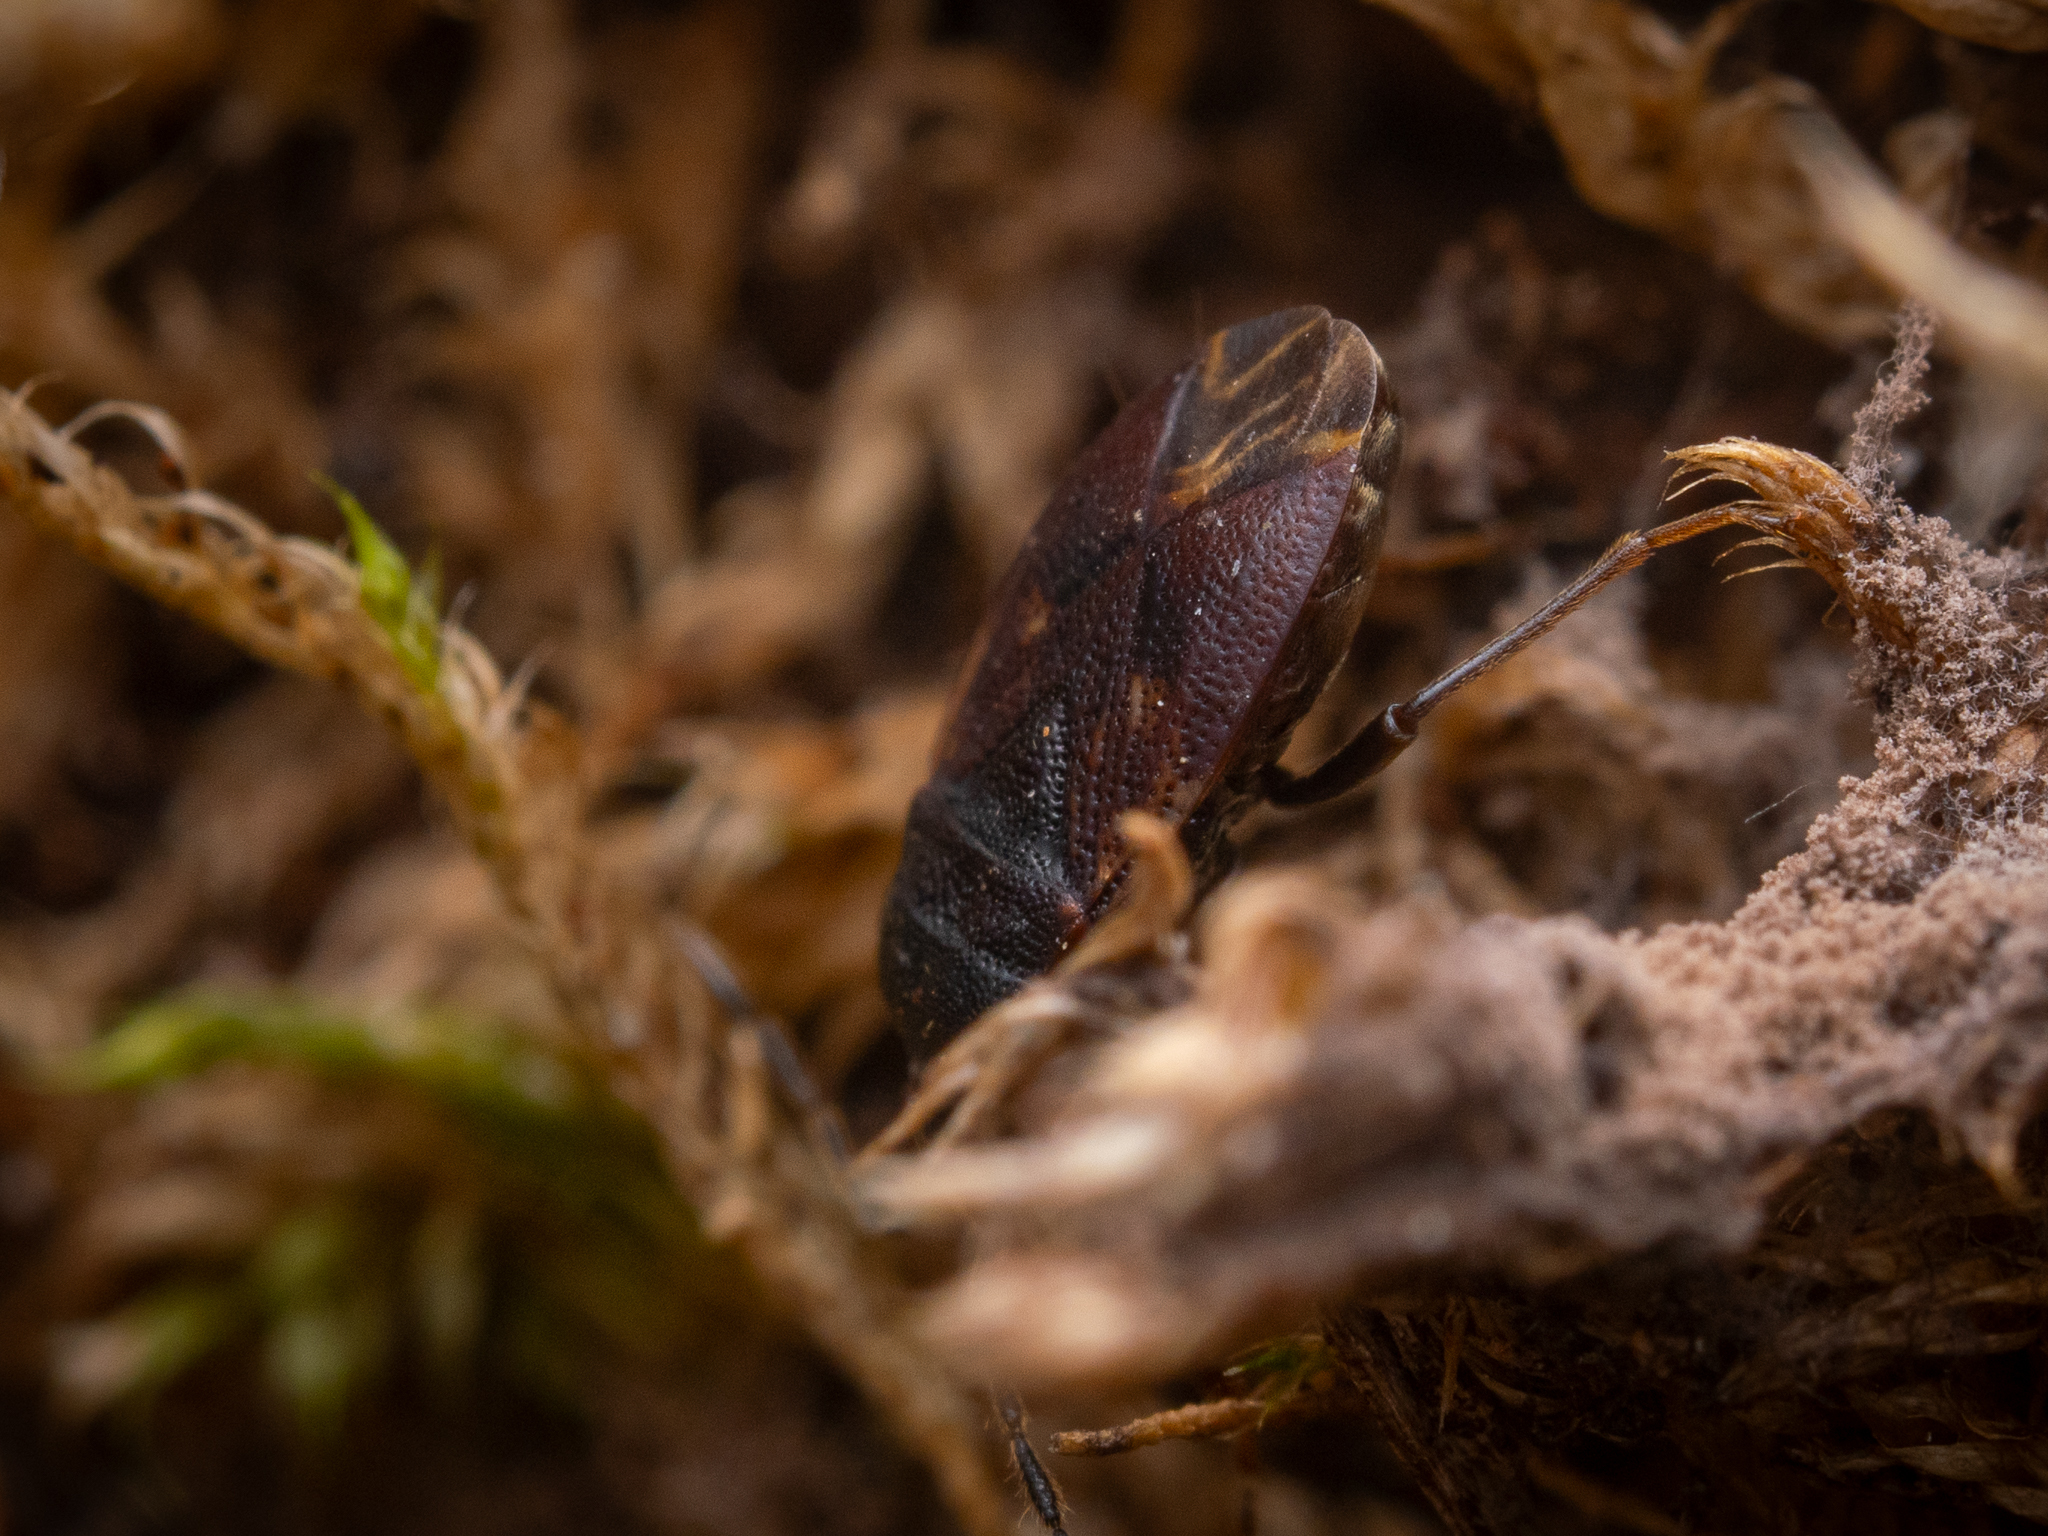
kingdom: Animalia
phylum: Arthropoda
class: Insecta
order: Hemiptera
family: Rhyparochromidae
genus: Drymus
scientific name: Drymus brunneus
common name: Seed bug
